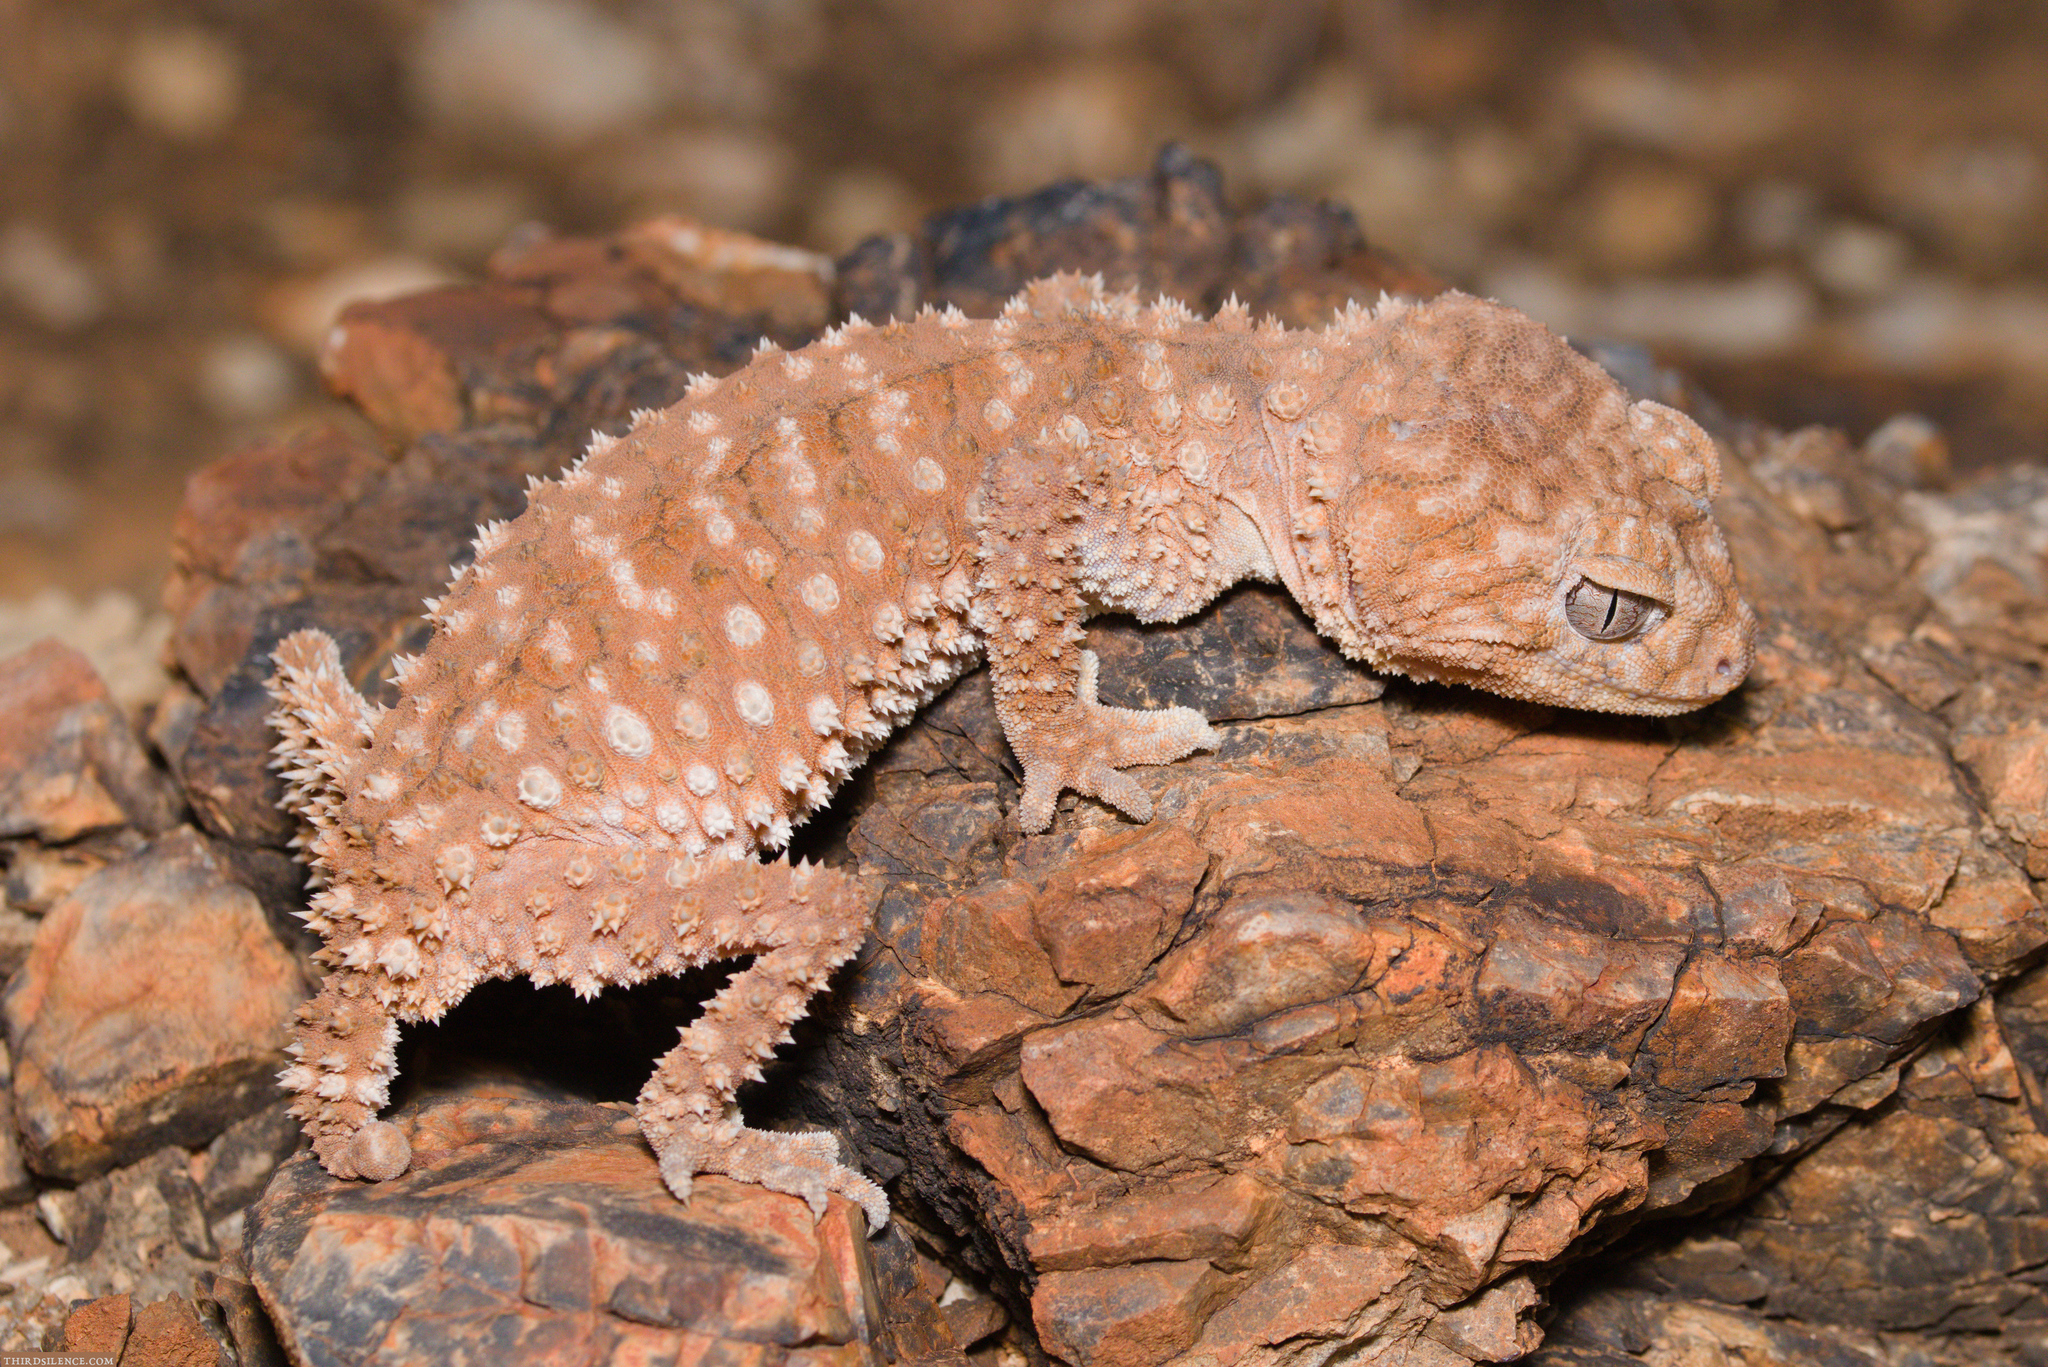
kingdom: Animalia
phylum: Chordata
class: Squamata
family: Carphodactylidae
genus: Nephrurus
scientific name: Nephrurus amyae
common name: Centralian rough knob-tail gecko
